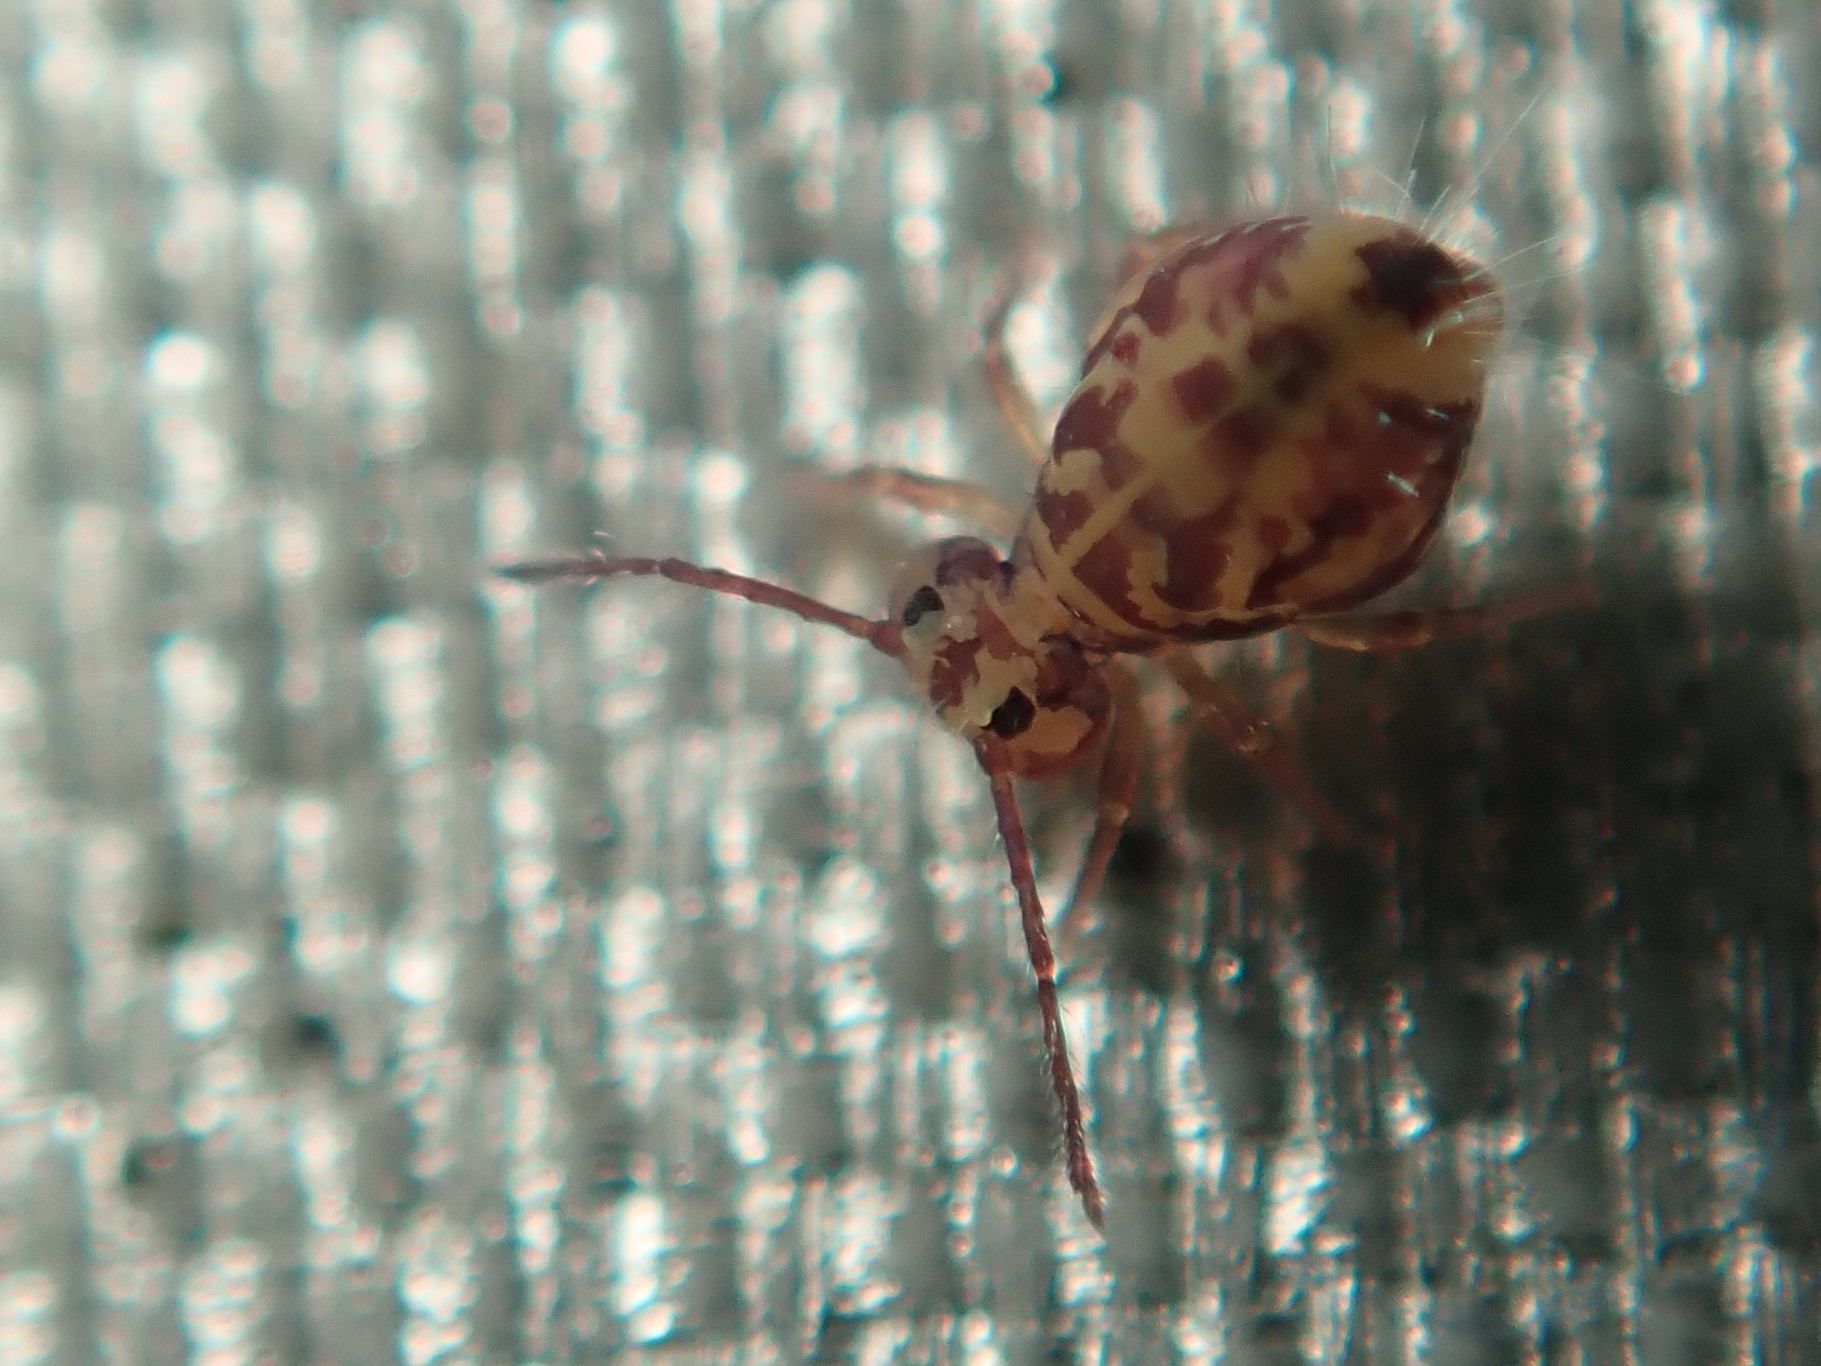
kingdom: Animalia
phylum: Arthropoda
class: Collembola
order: Symphypleona
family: Dicyrtomidae
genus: Dicyrtomina
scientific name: Dicyrtomina ornata
